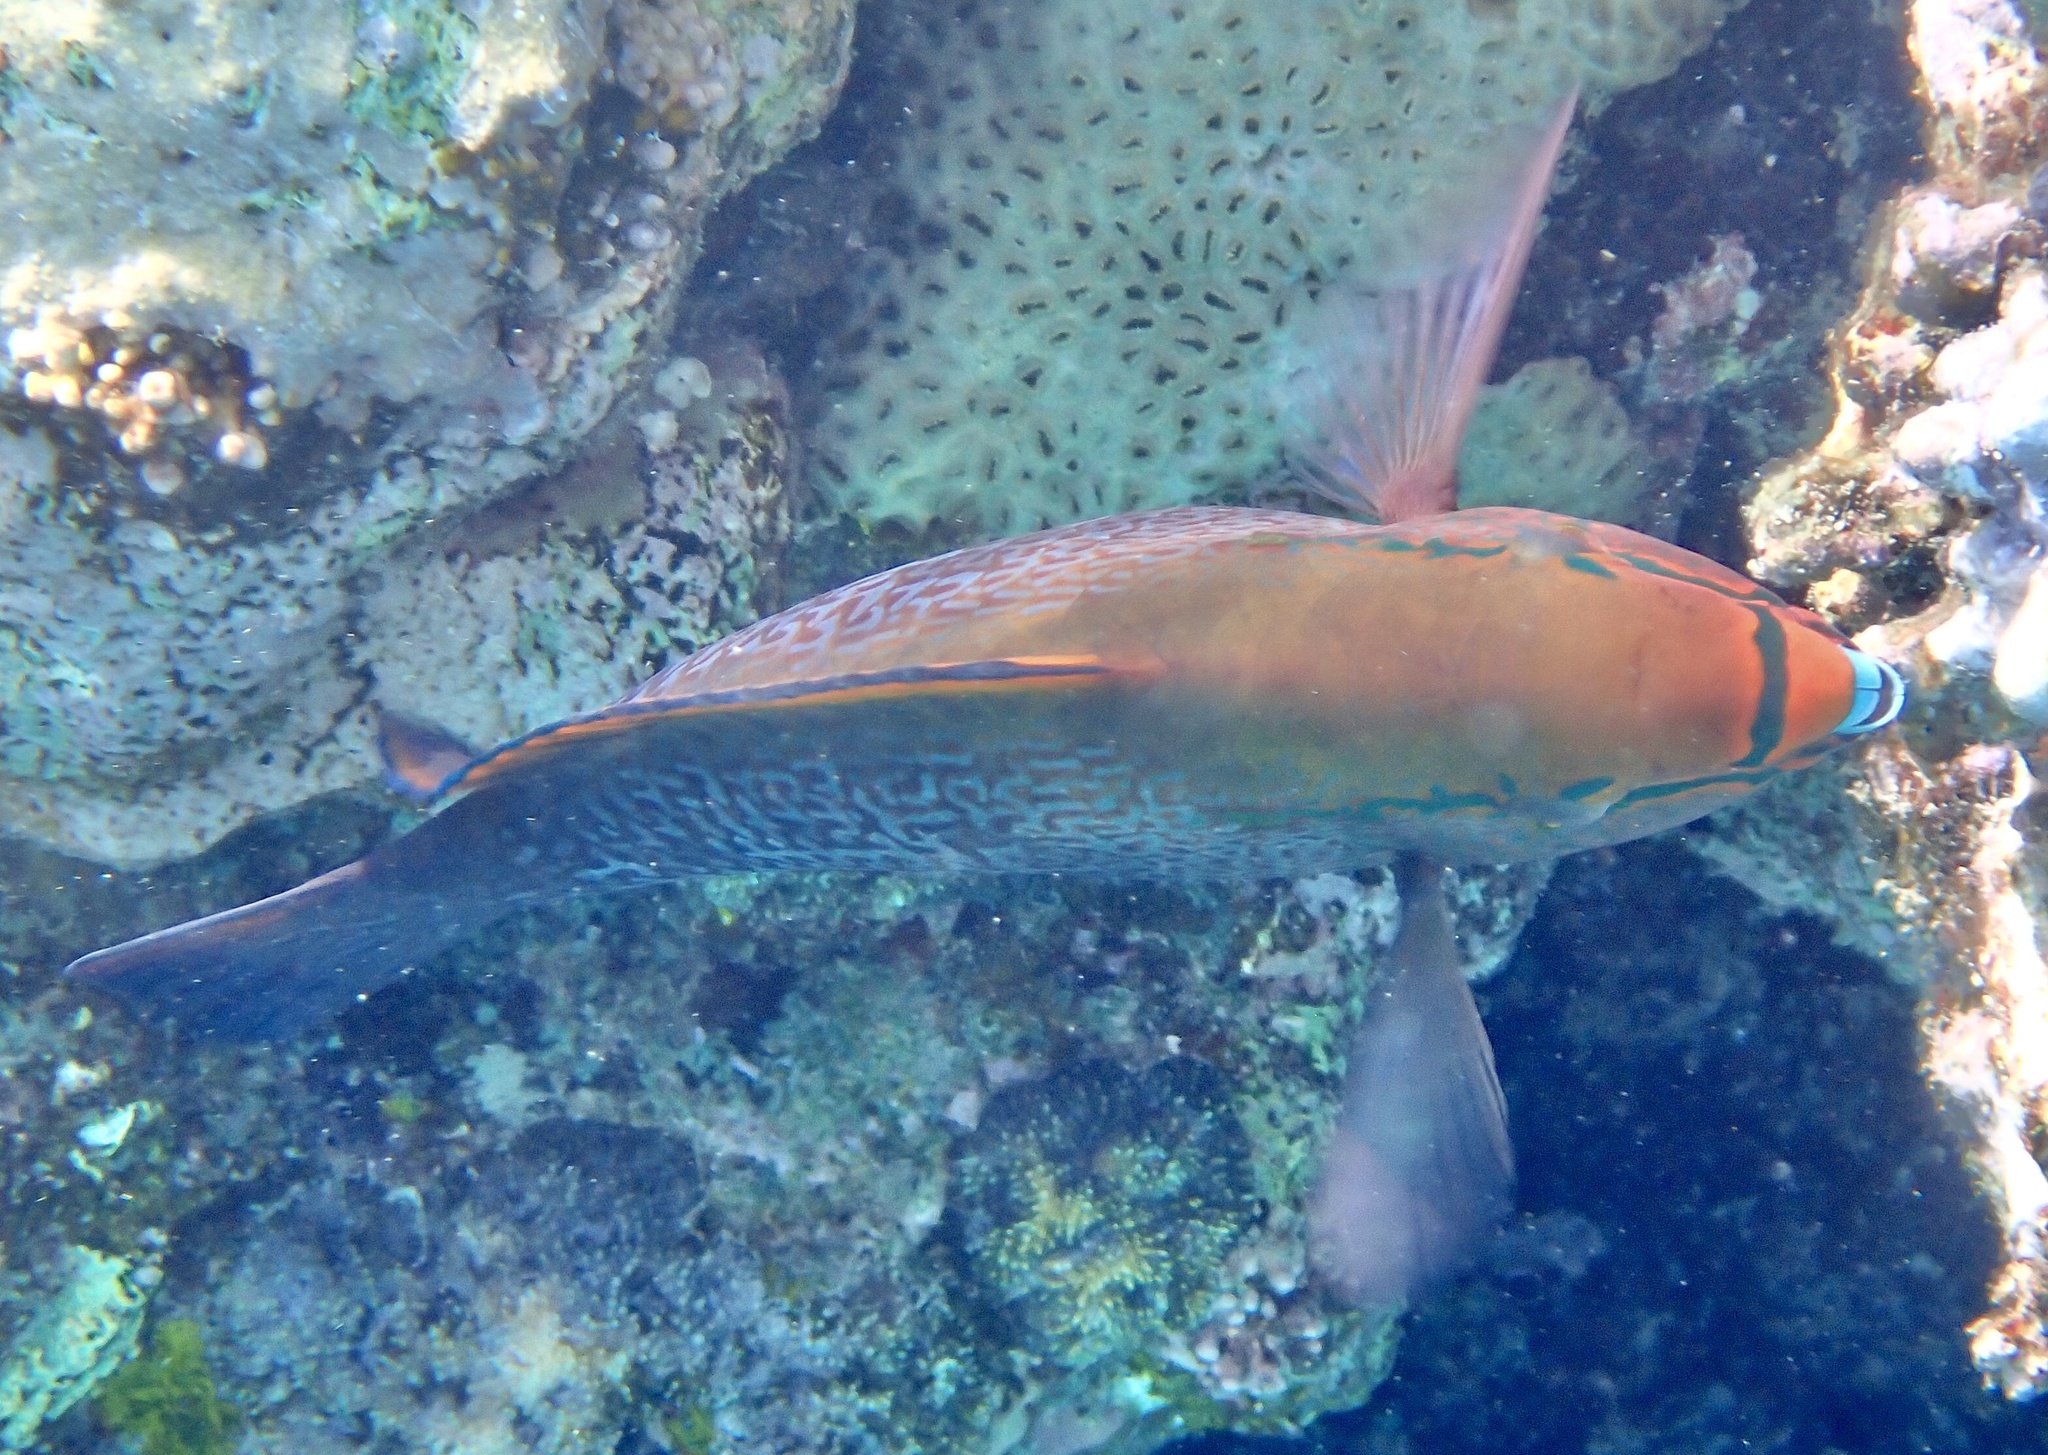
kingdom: Animalia
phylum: Chordata
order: Perciformes
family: Scaridae
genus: Scarus
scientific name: Scarus niger
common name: Dusky parrotfish
